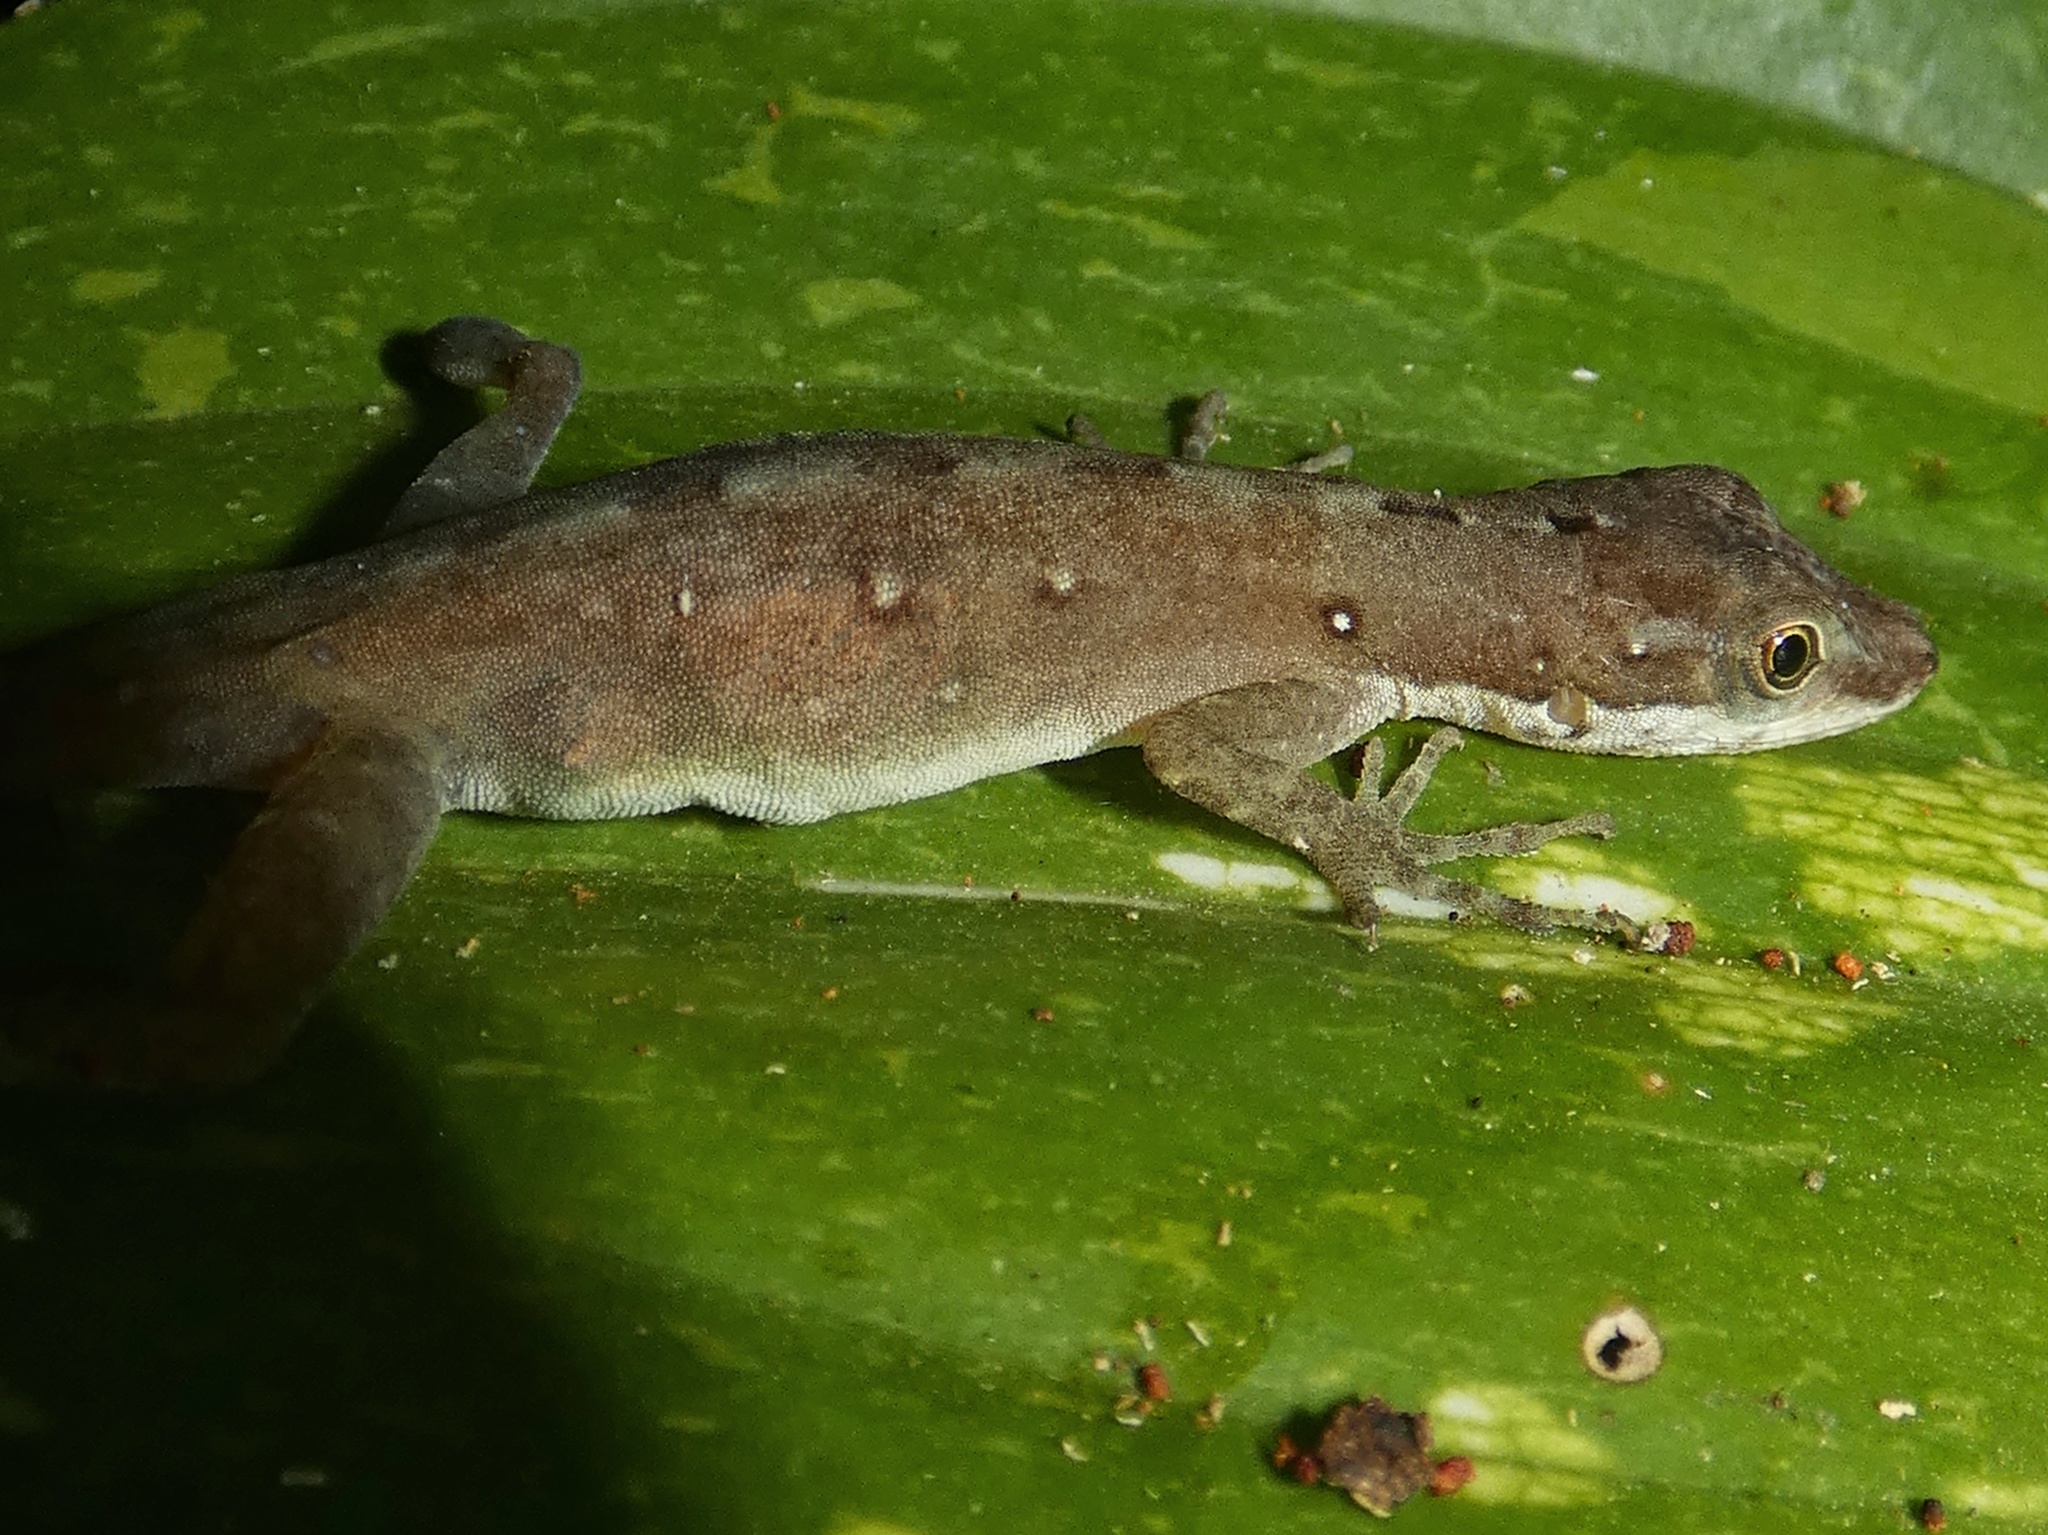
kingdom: Animalia
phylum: Chordata
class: Squamata
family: Dactyloidae
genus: Anolis
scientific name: Anolis limifrons
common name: Border anole
